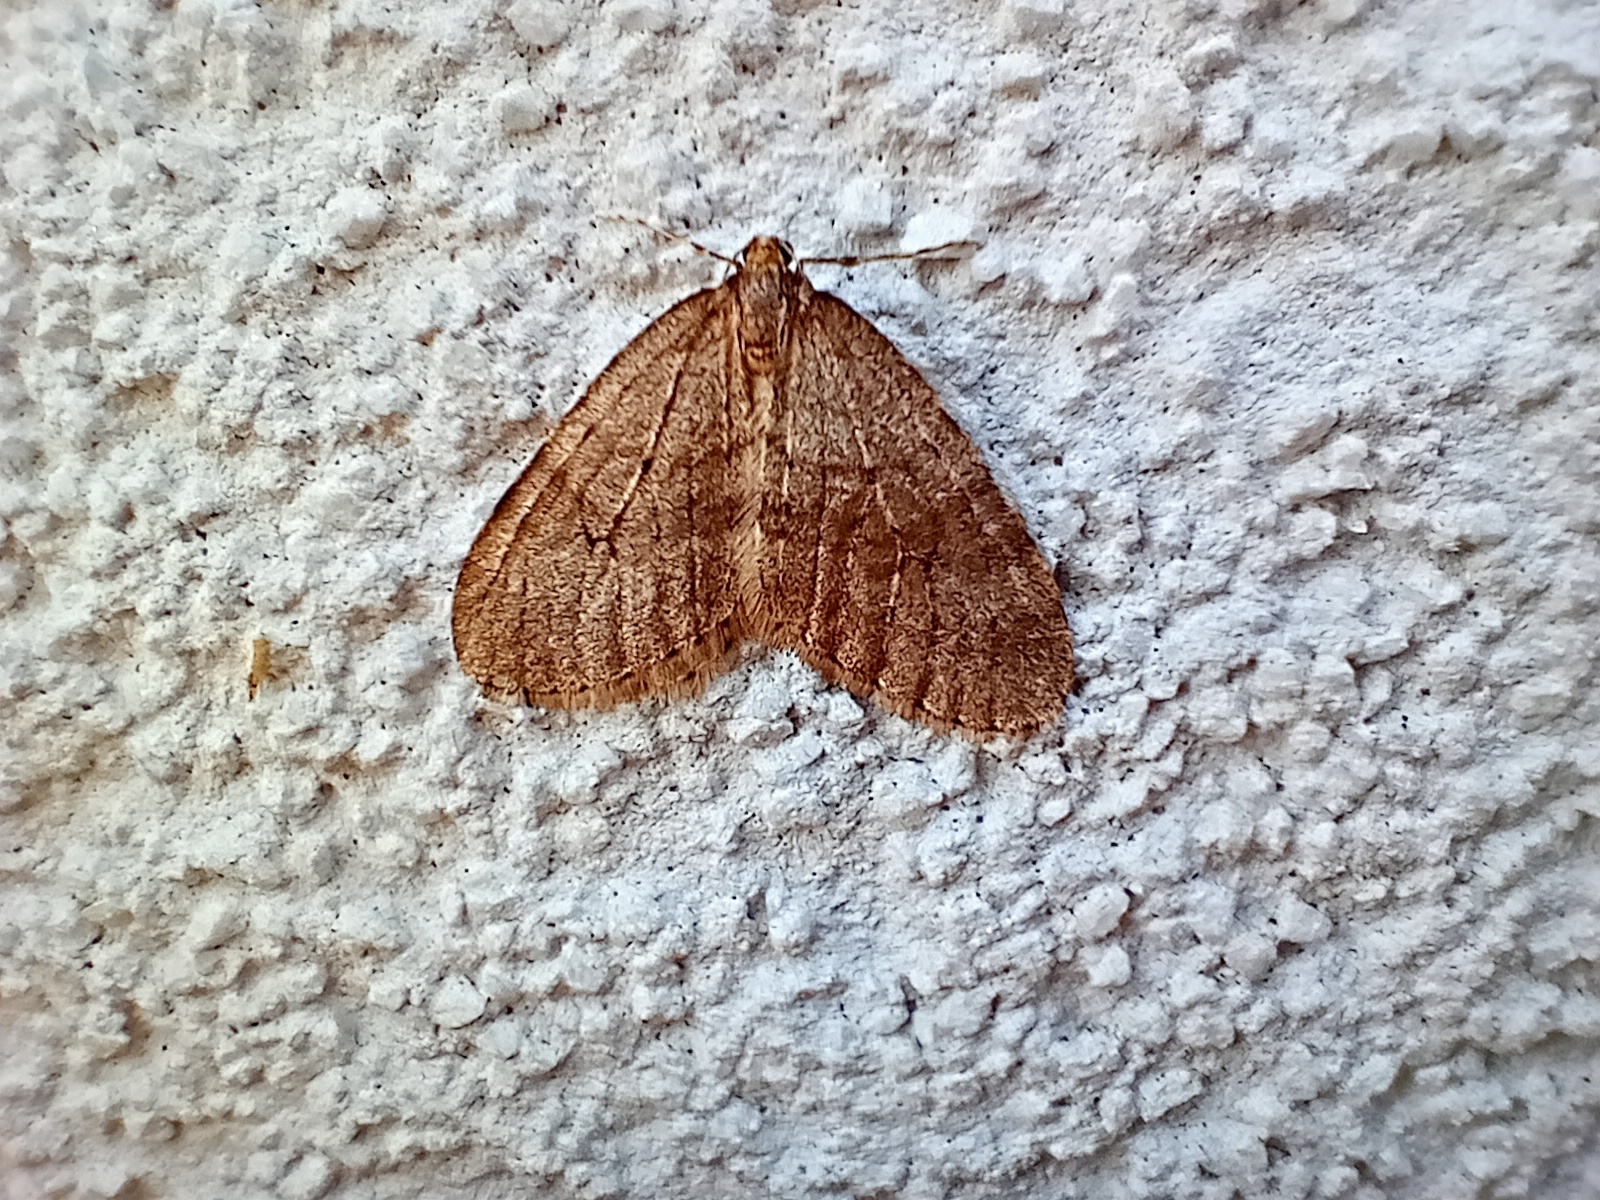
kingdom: Animalia
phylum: Arthropoda
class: Insecta
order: Lepidoptera
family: Geometridae
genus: Operophtera
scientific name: Operophtera brumata
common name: Winter moth
